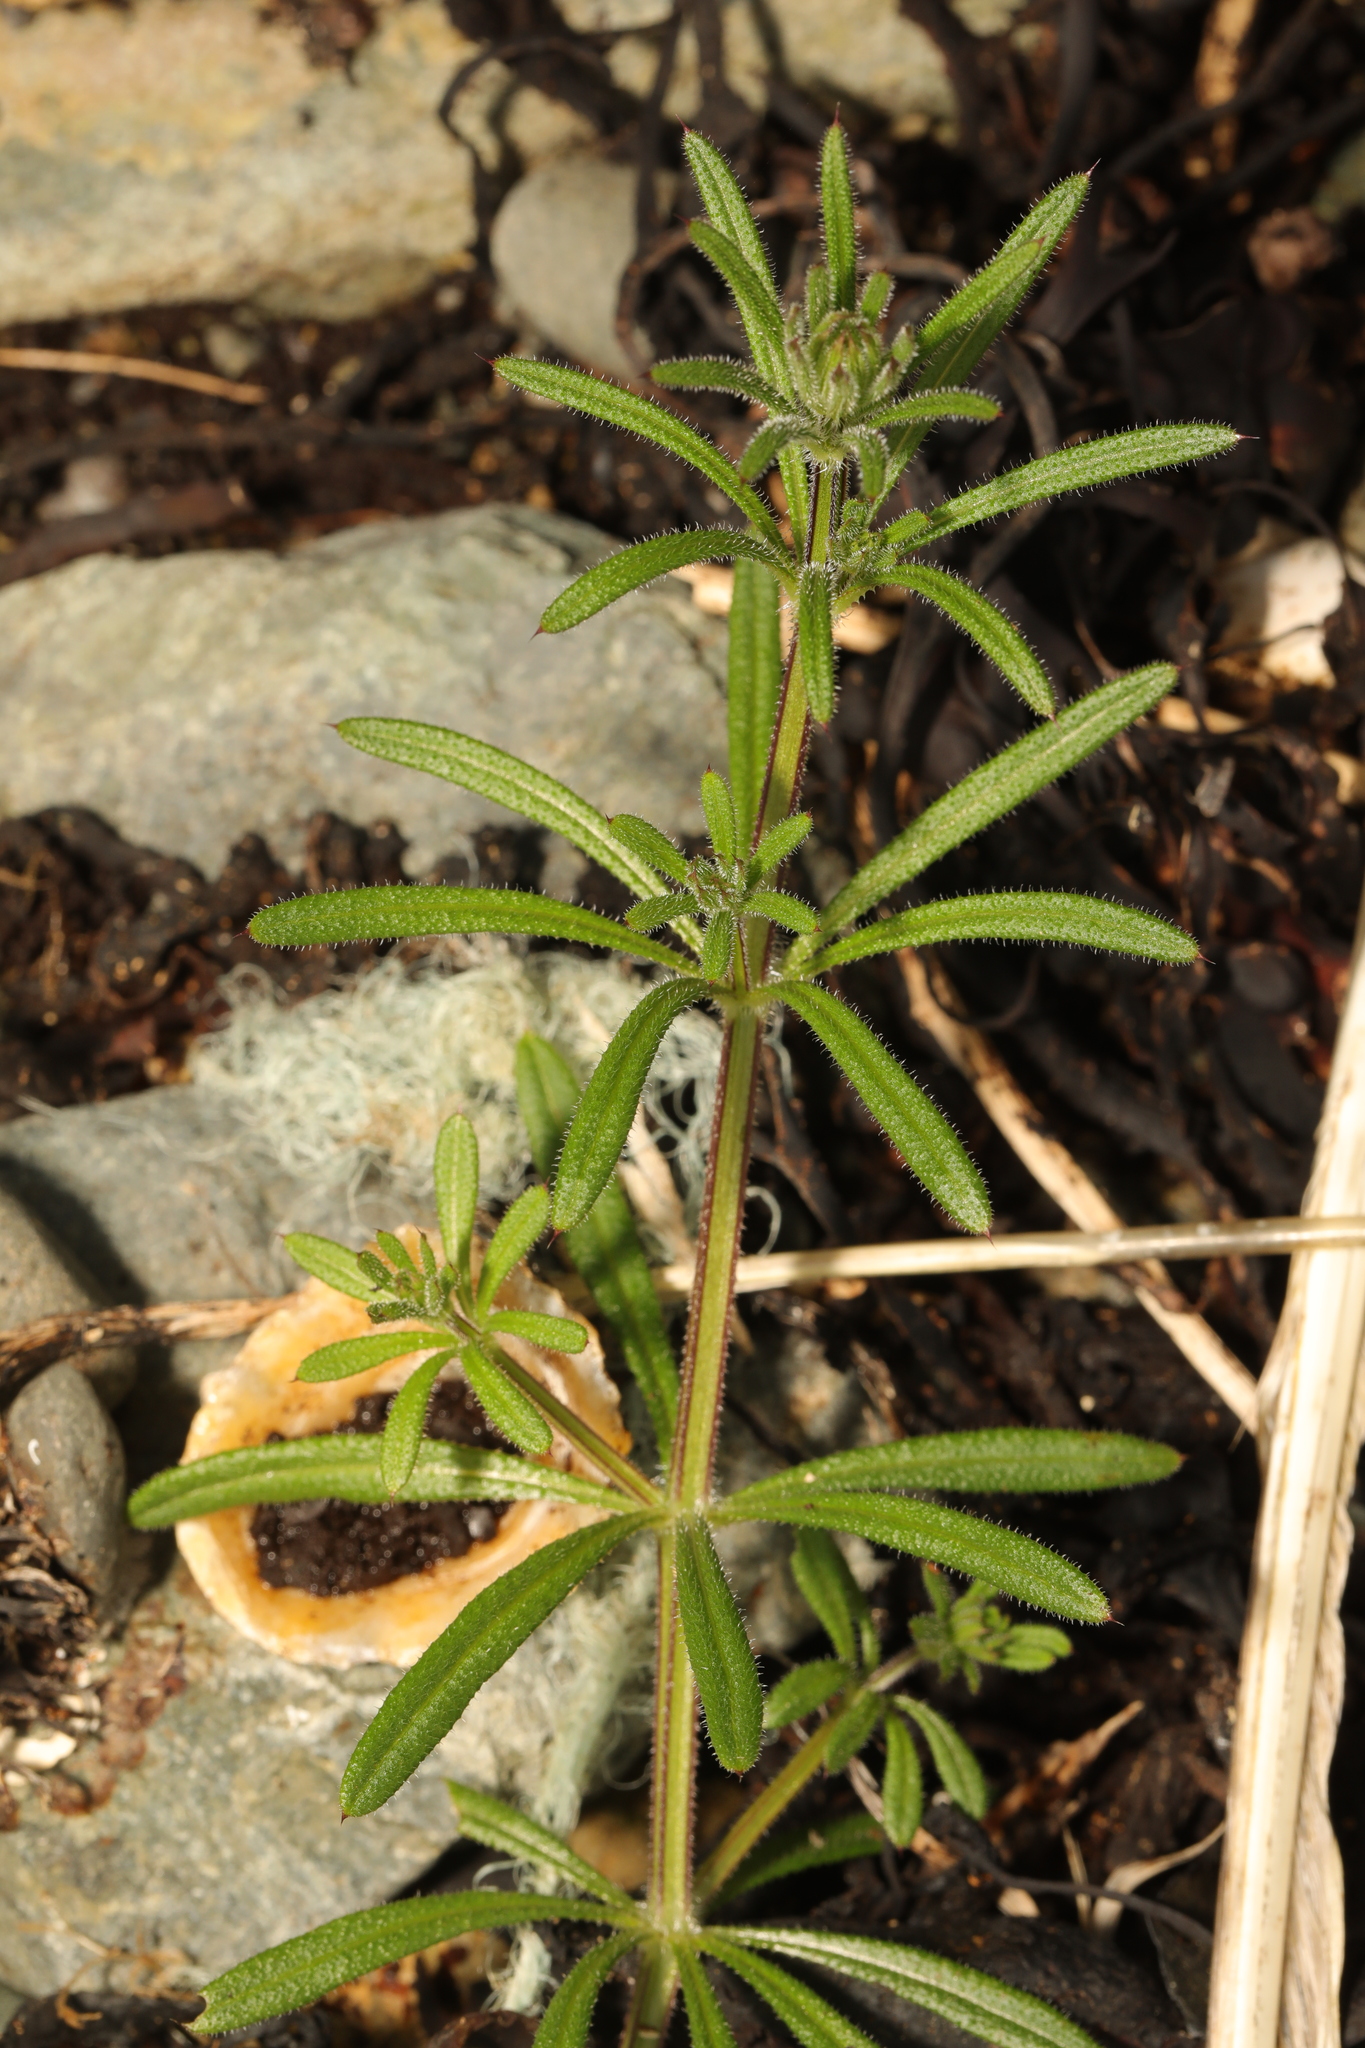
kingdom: Plantae
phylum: Tracheophyta
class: Magnoliopsida
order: Gentianales
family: Rubiaceae
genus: Galium
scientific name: Galium aparine
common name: Cleavers
